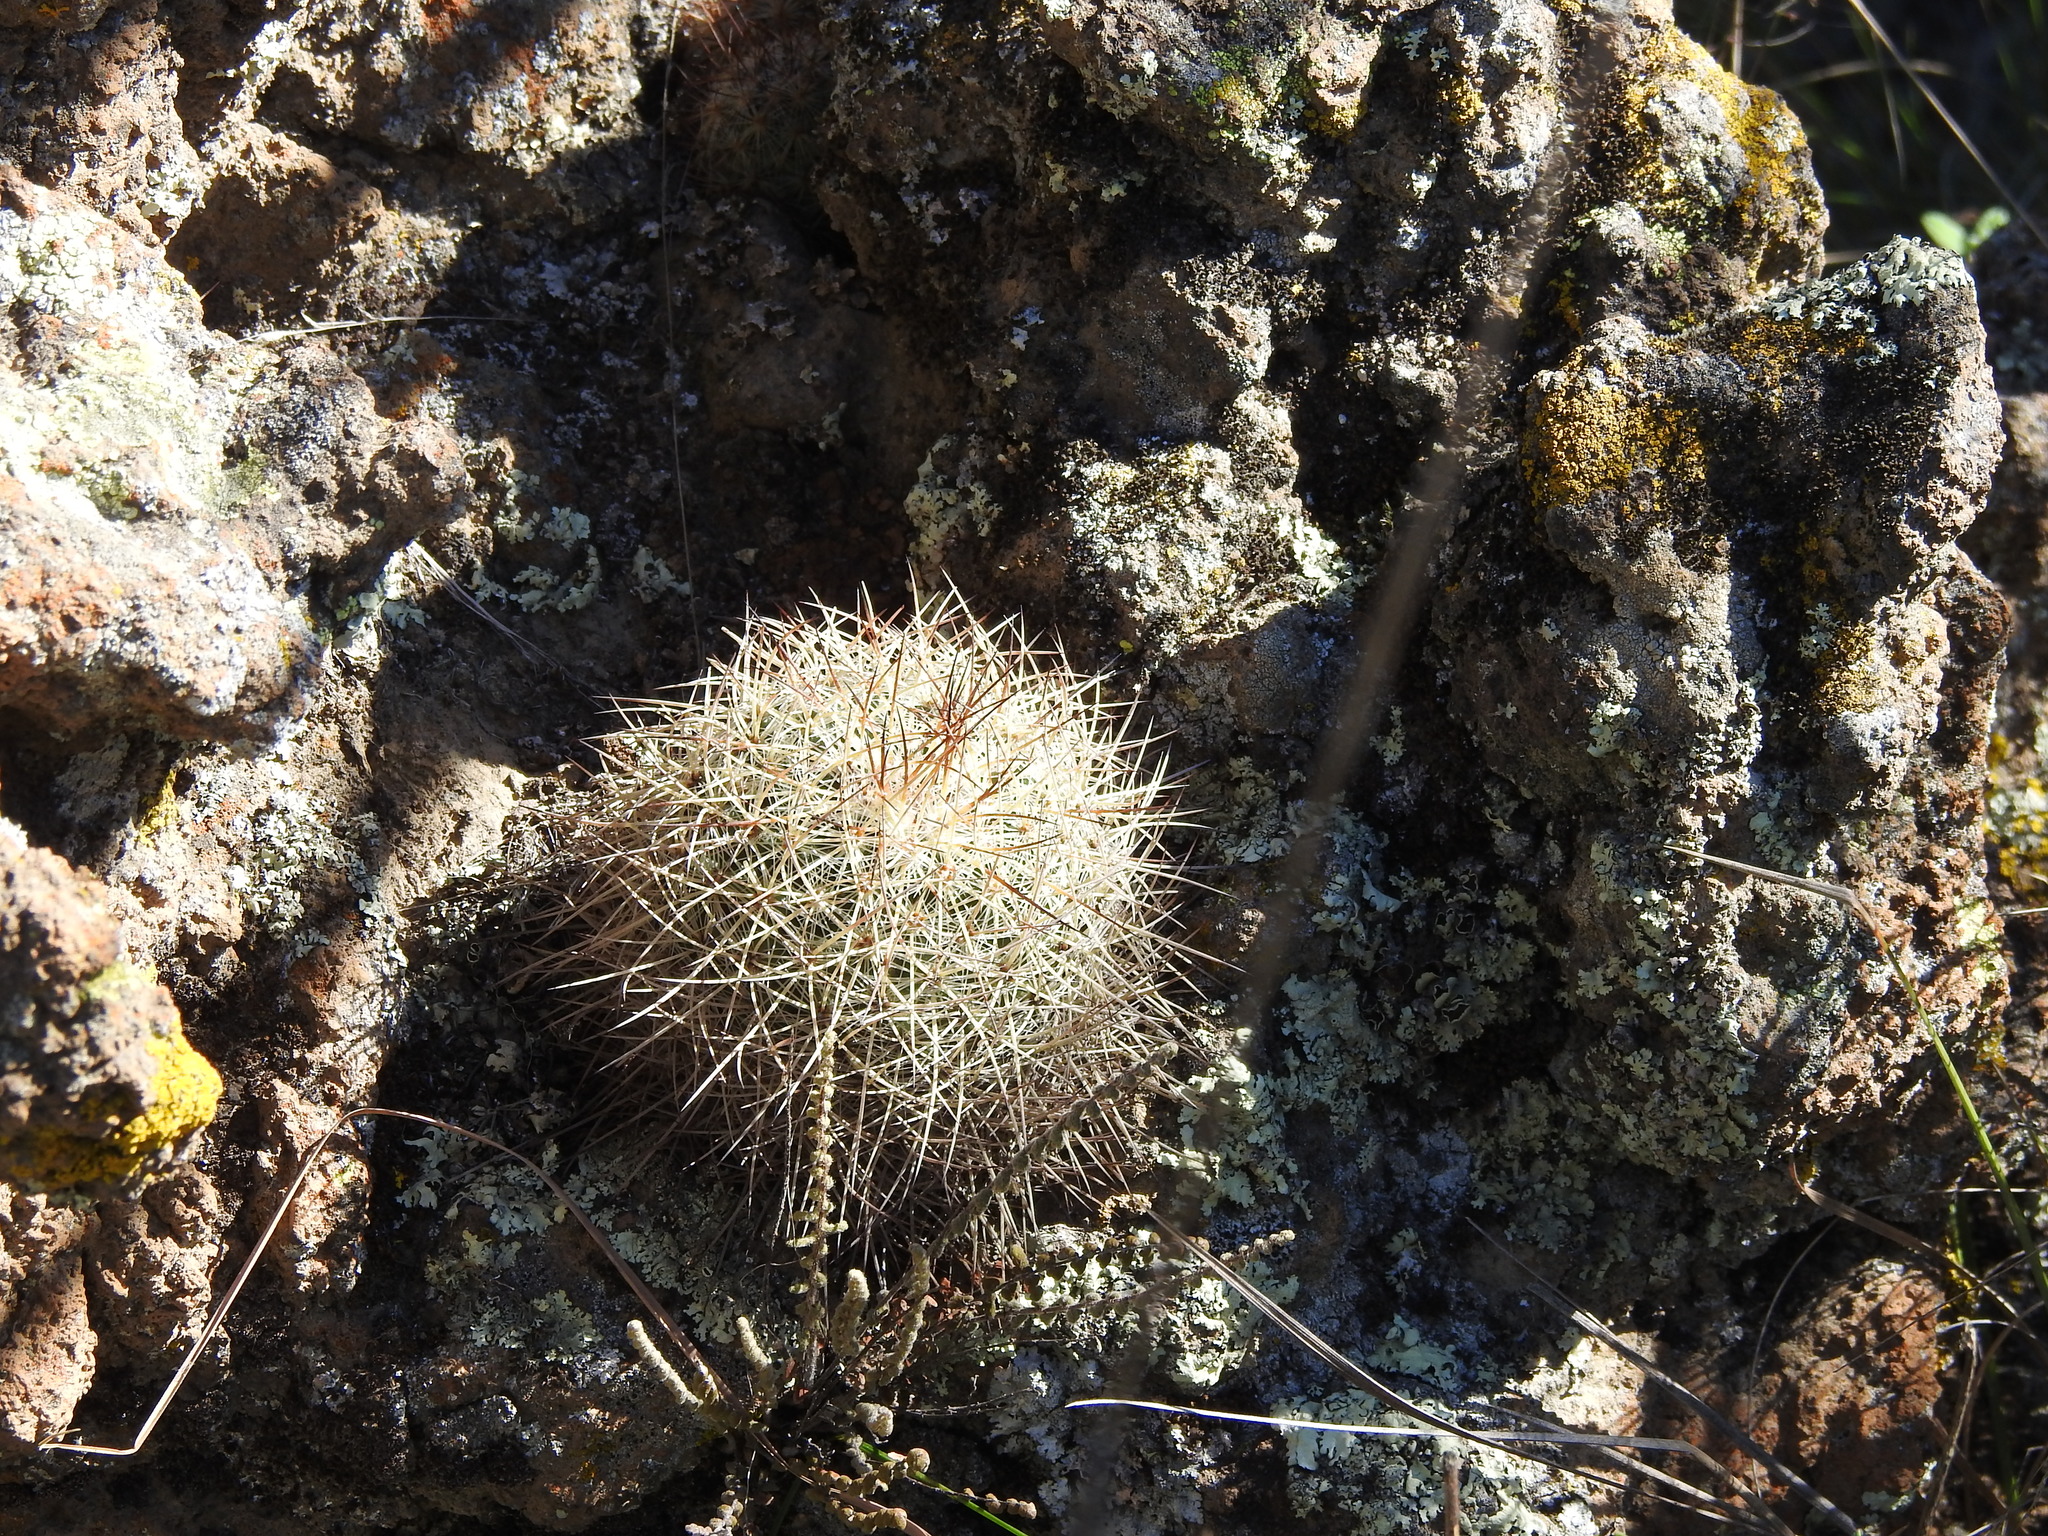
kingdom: Plantae
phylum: Tracheophyta
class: Magnoliopsida
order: Caryophyllales
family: Cactaceae
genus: Mammillaria
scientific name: Mammillaria discolor
